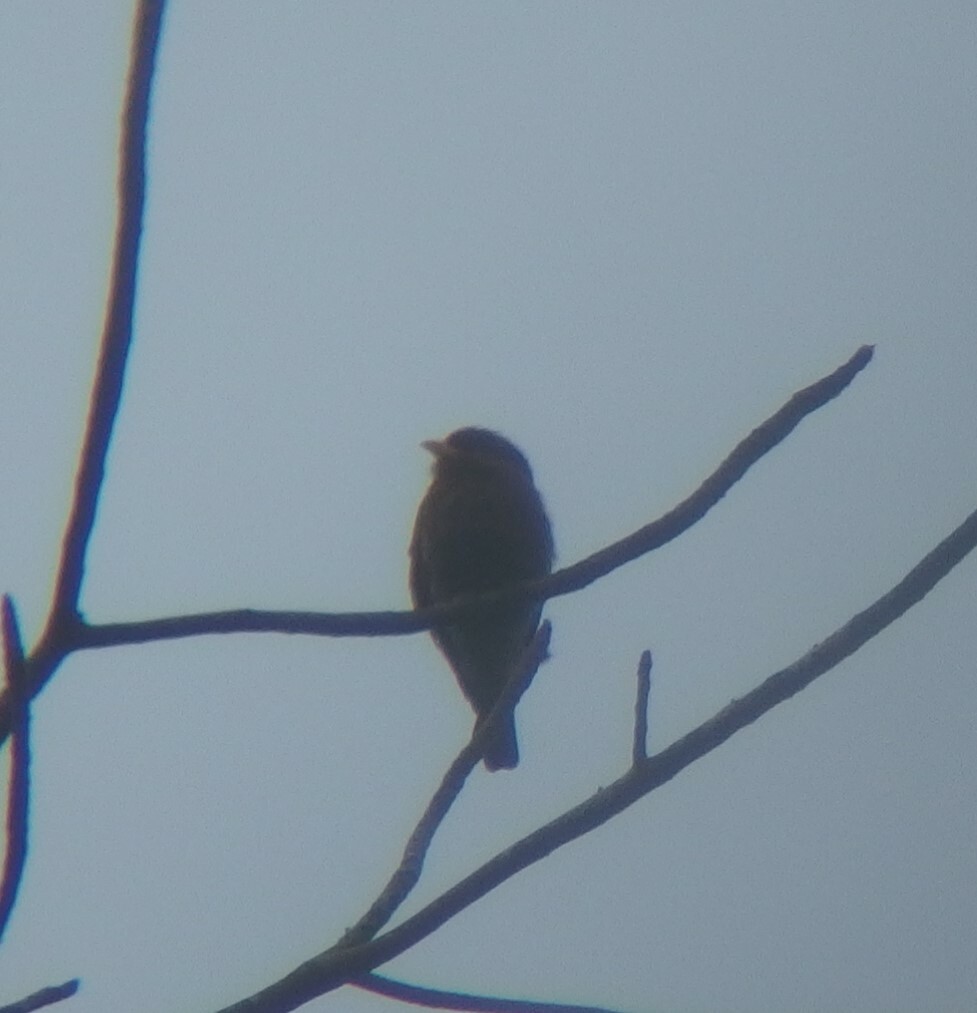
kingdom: Animalia
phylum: Chordata
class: Aves
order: Coraciiformes
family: Coraciidae
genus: Eurystomus
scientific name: Eurystomus glaucurus
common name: Broad-billed roller
